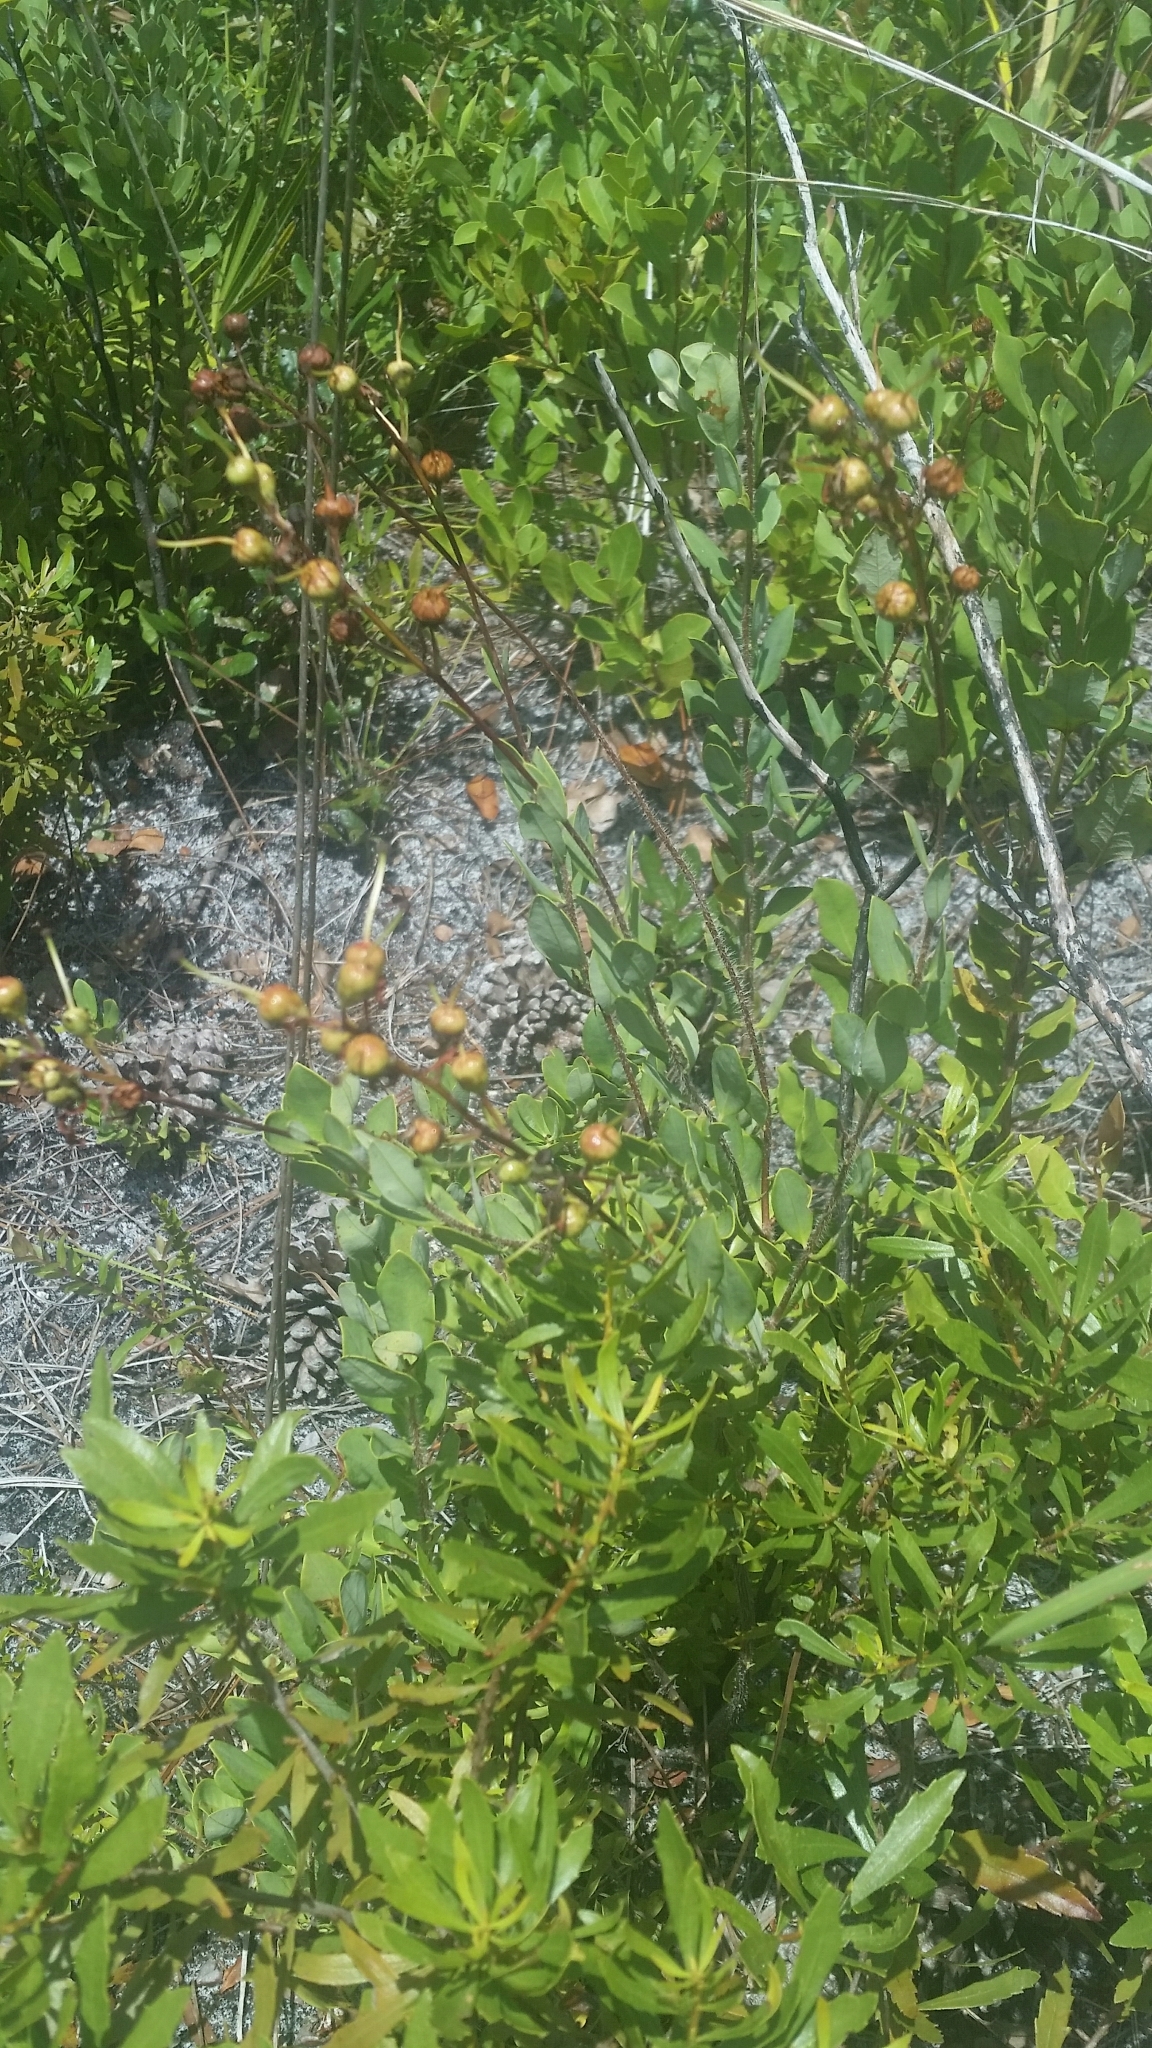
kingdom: Plantae
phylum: Tracheophyta
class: Magnoliopsida
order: Ericales
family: Ericaceae
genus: Bejaria
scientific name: Bejaria racemosa
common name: Tarflower
